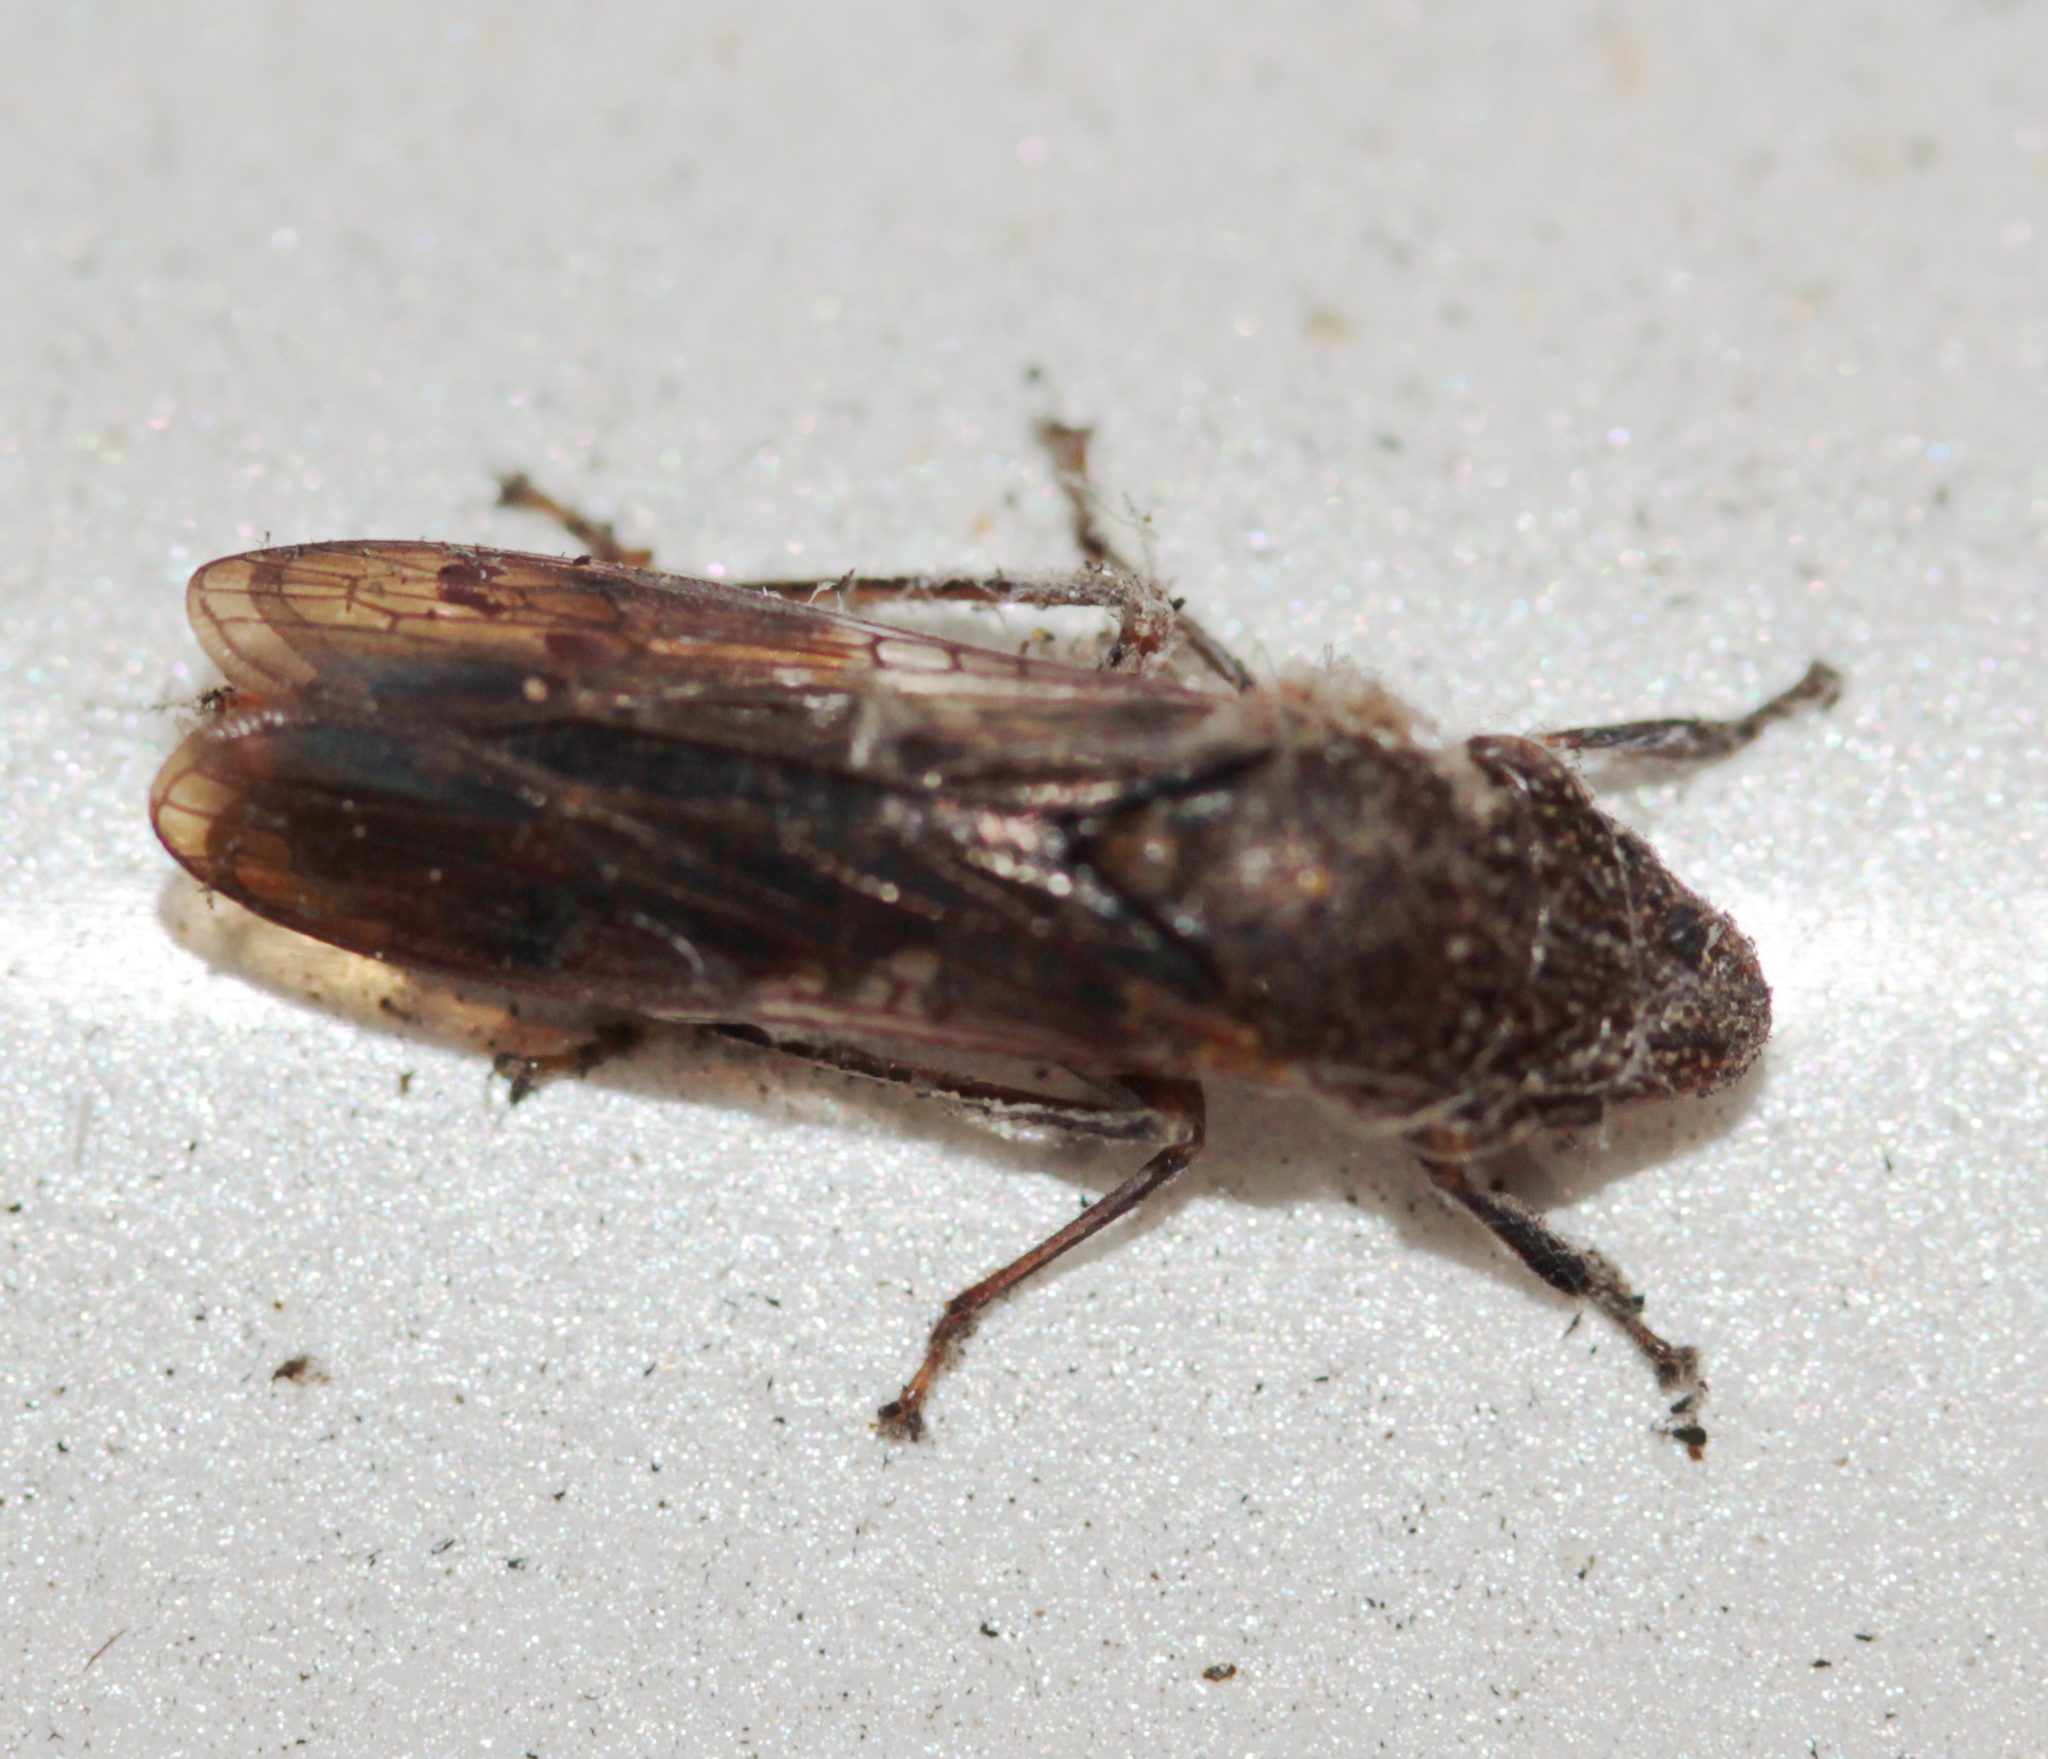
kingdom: Animalia
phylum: Arthropoda
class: Insecta
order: Hemiptera
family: Cicadellidae
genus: Homalodisca
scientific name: Homalodisca vitripennis
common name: Glassy-winged sharpshooter
